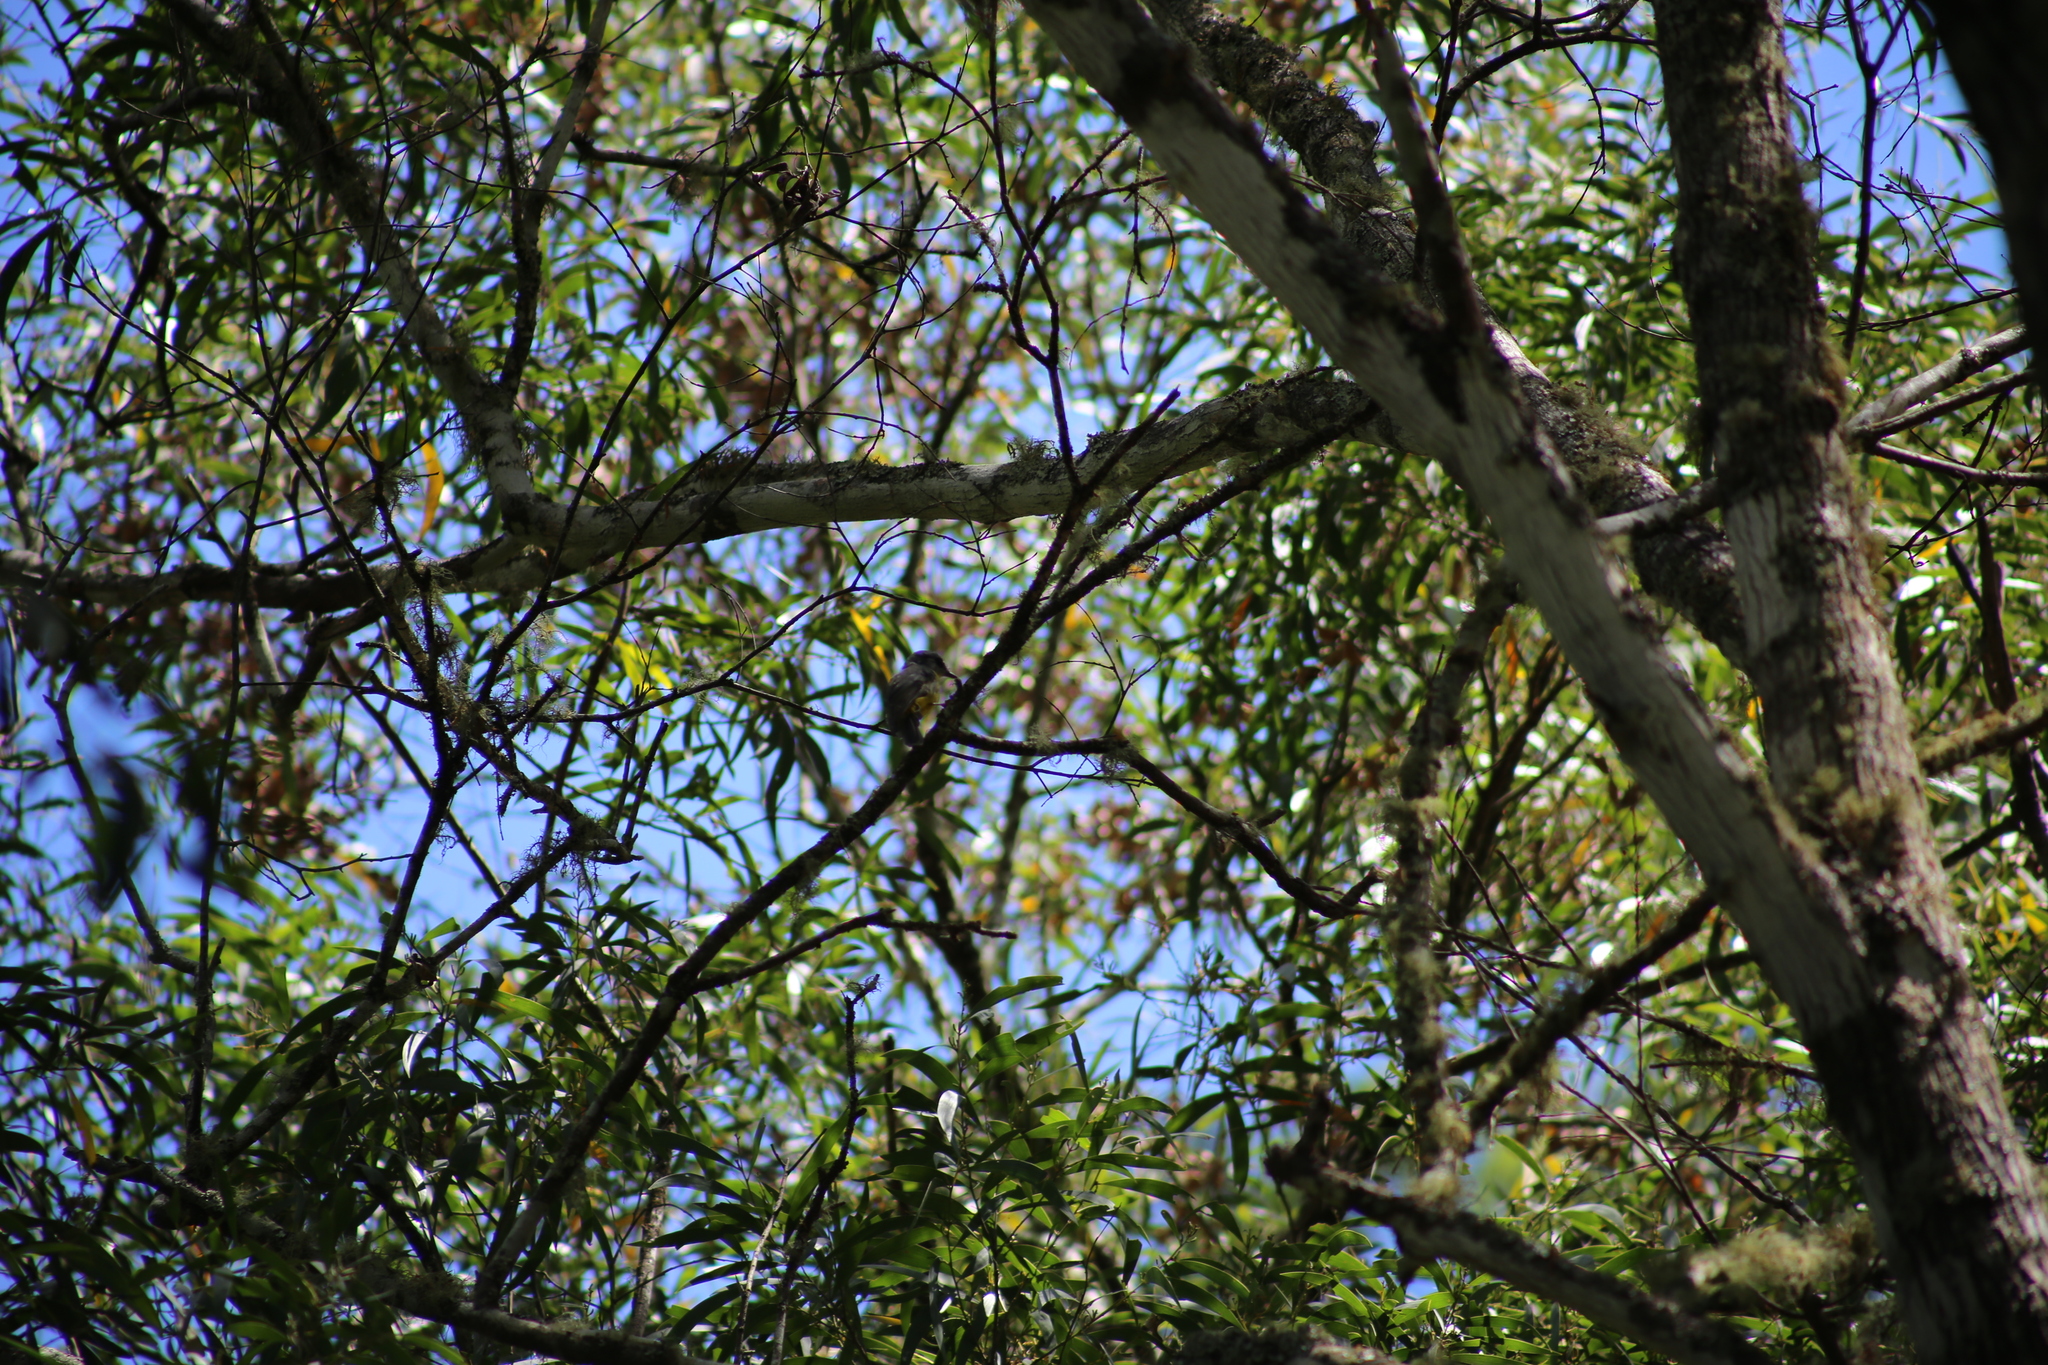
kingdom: Animalia
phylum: Chordata
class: Aves
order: Passeriformes
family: Petroicidae
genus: Eopsaltria
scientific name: Eopsaltria australis
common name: Eastern yellow robin
